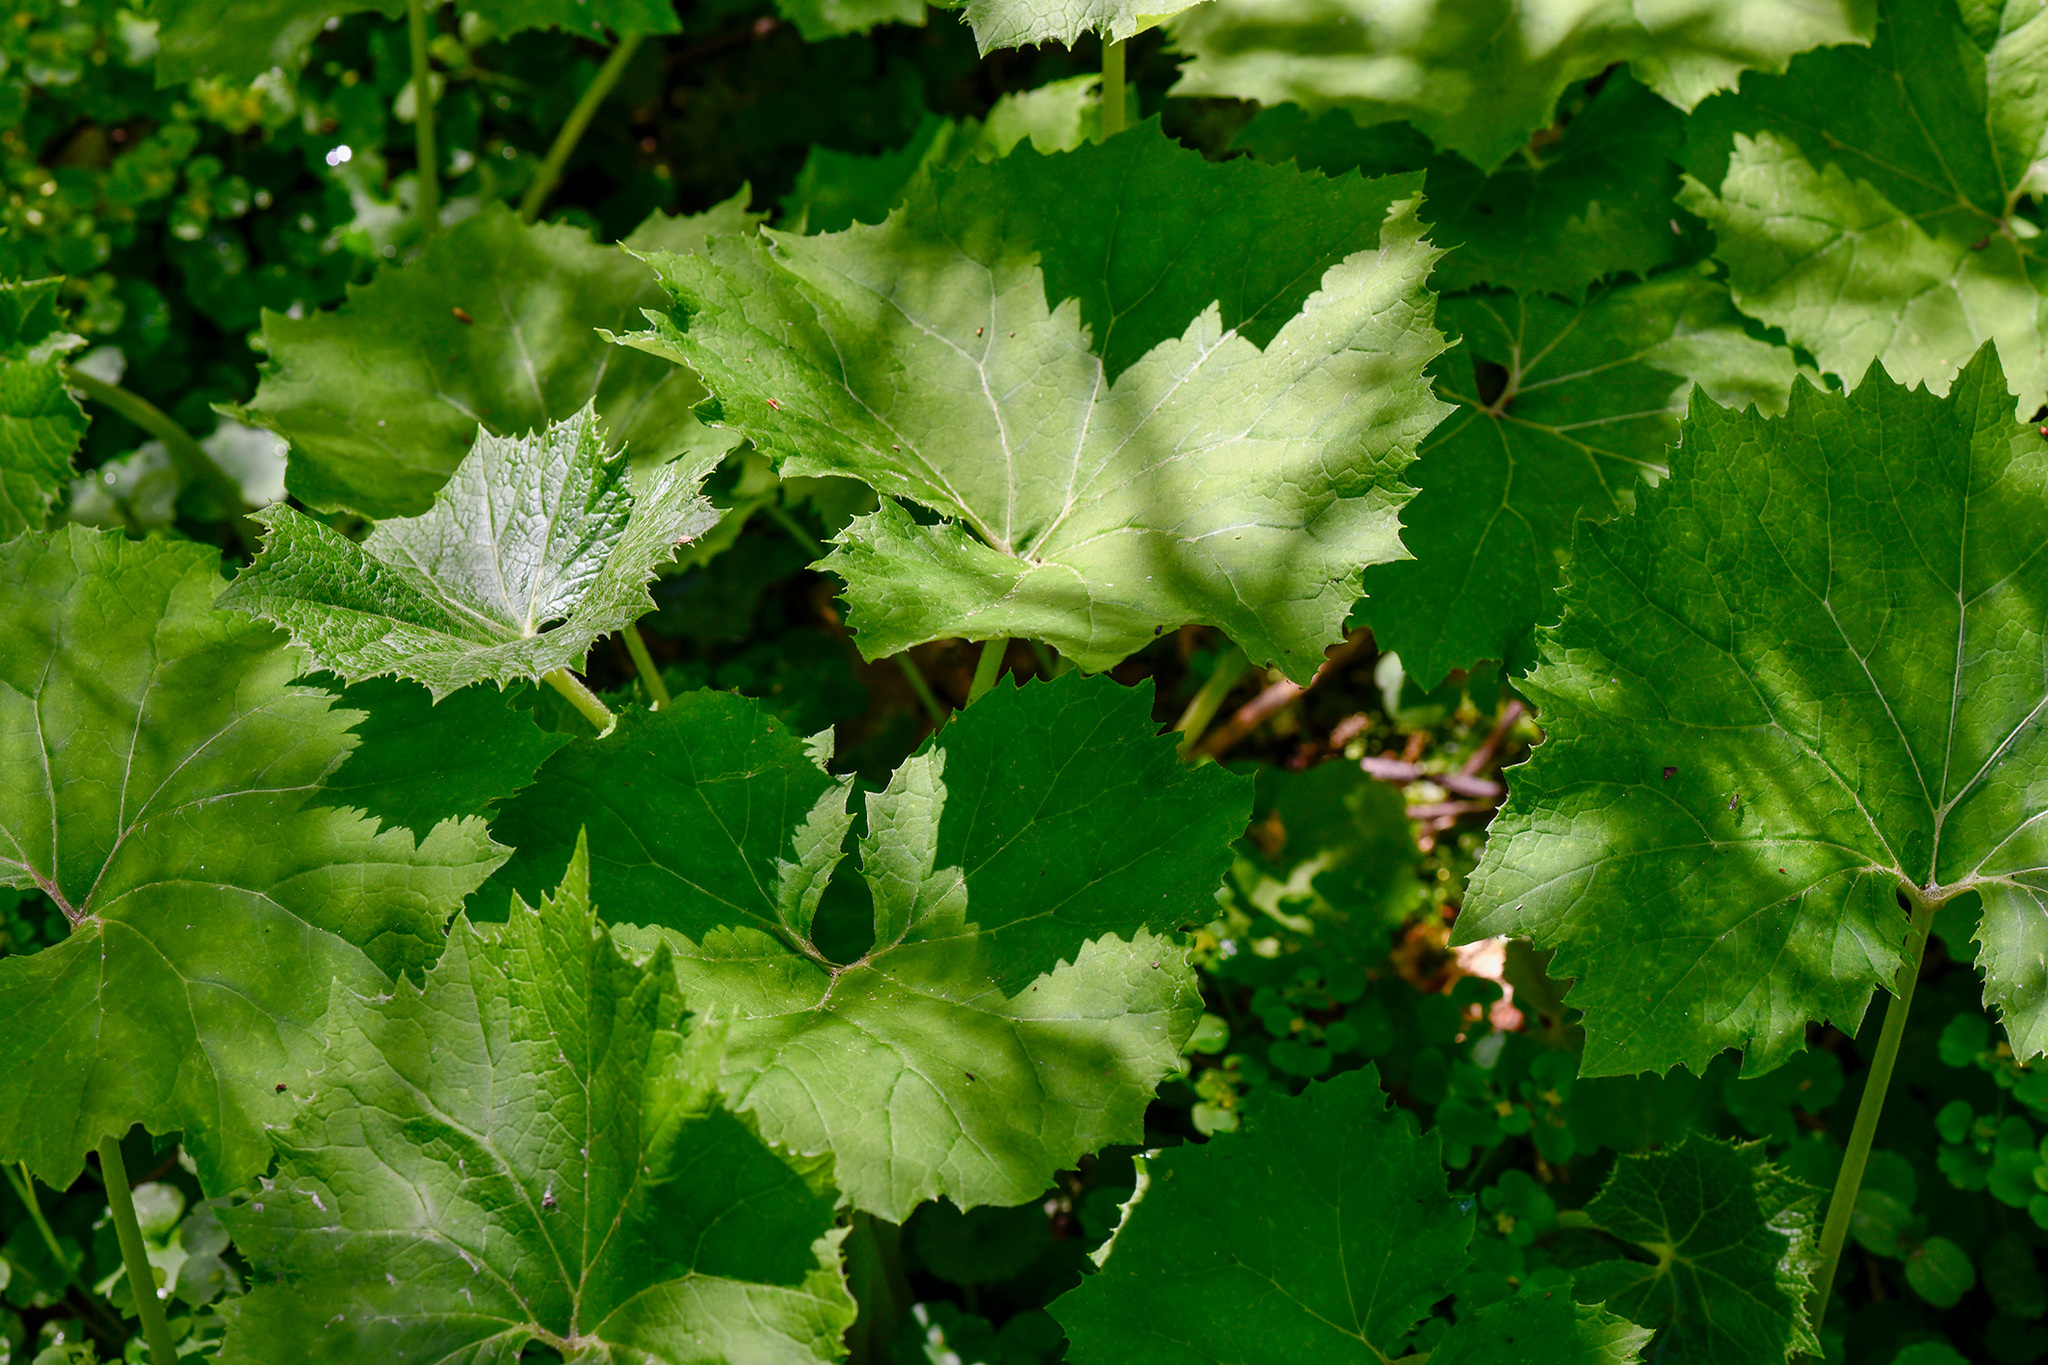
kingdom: Plantae
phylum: Tracheophyta
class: Magnoliopsida
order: Asterales
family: Asteraceae
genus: Petasites
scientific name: Petasites albus
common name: White butterbur
